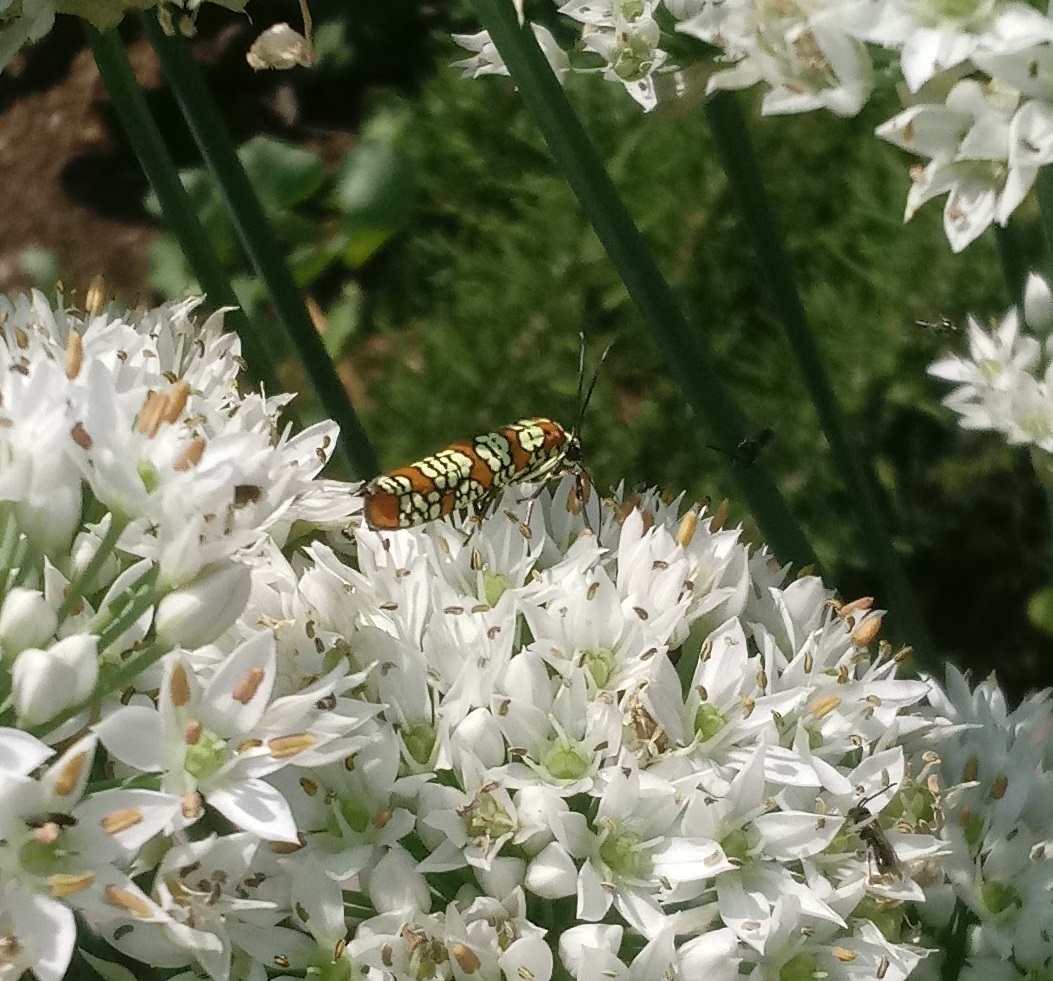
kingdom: Animalia
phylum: Arthropoda
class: Insecta
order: Lepidoptera
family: Attevidae
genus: Atteva
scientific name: Atteva punctella
